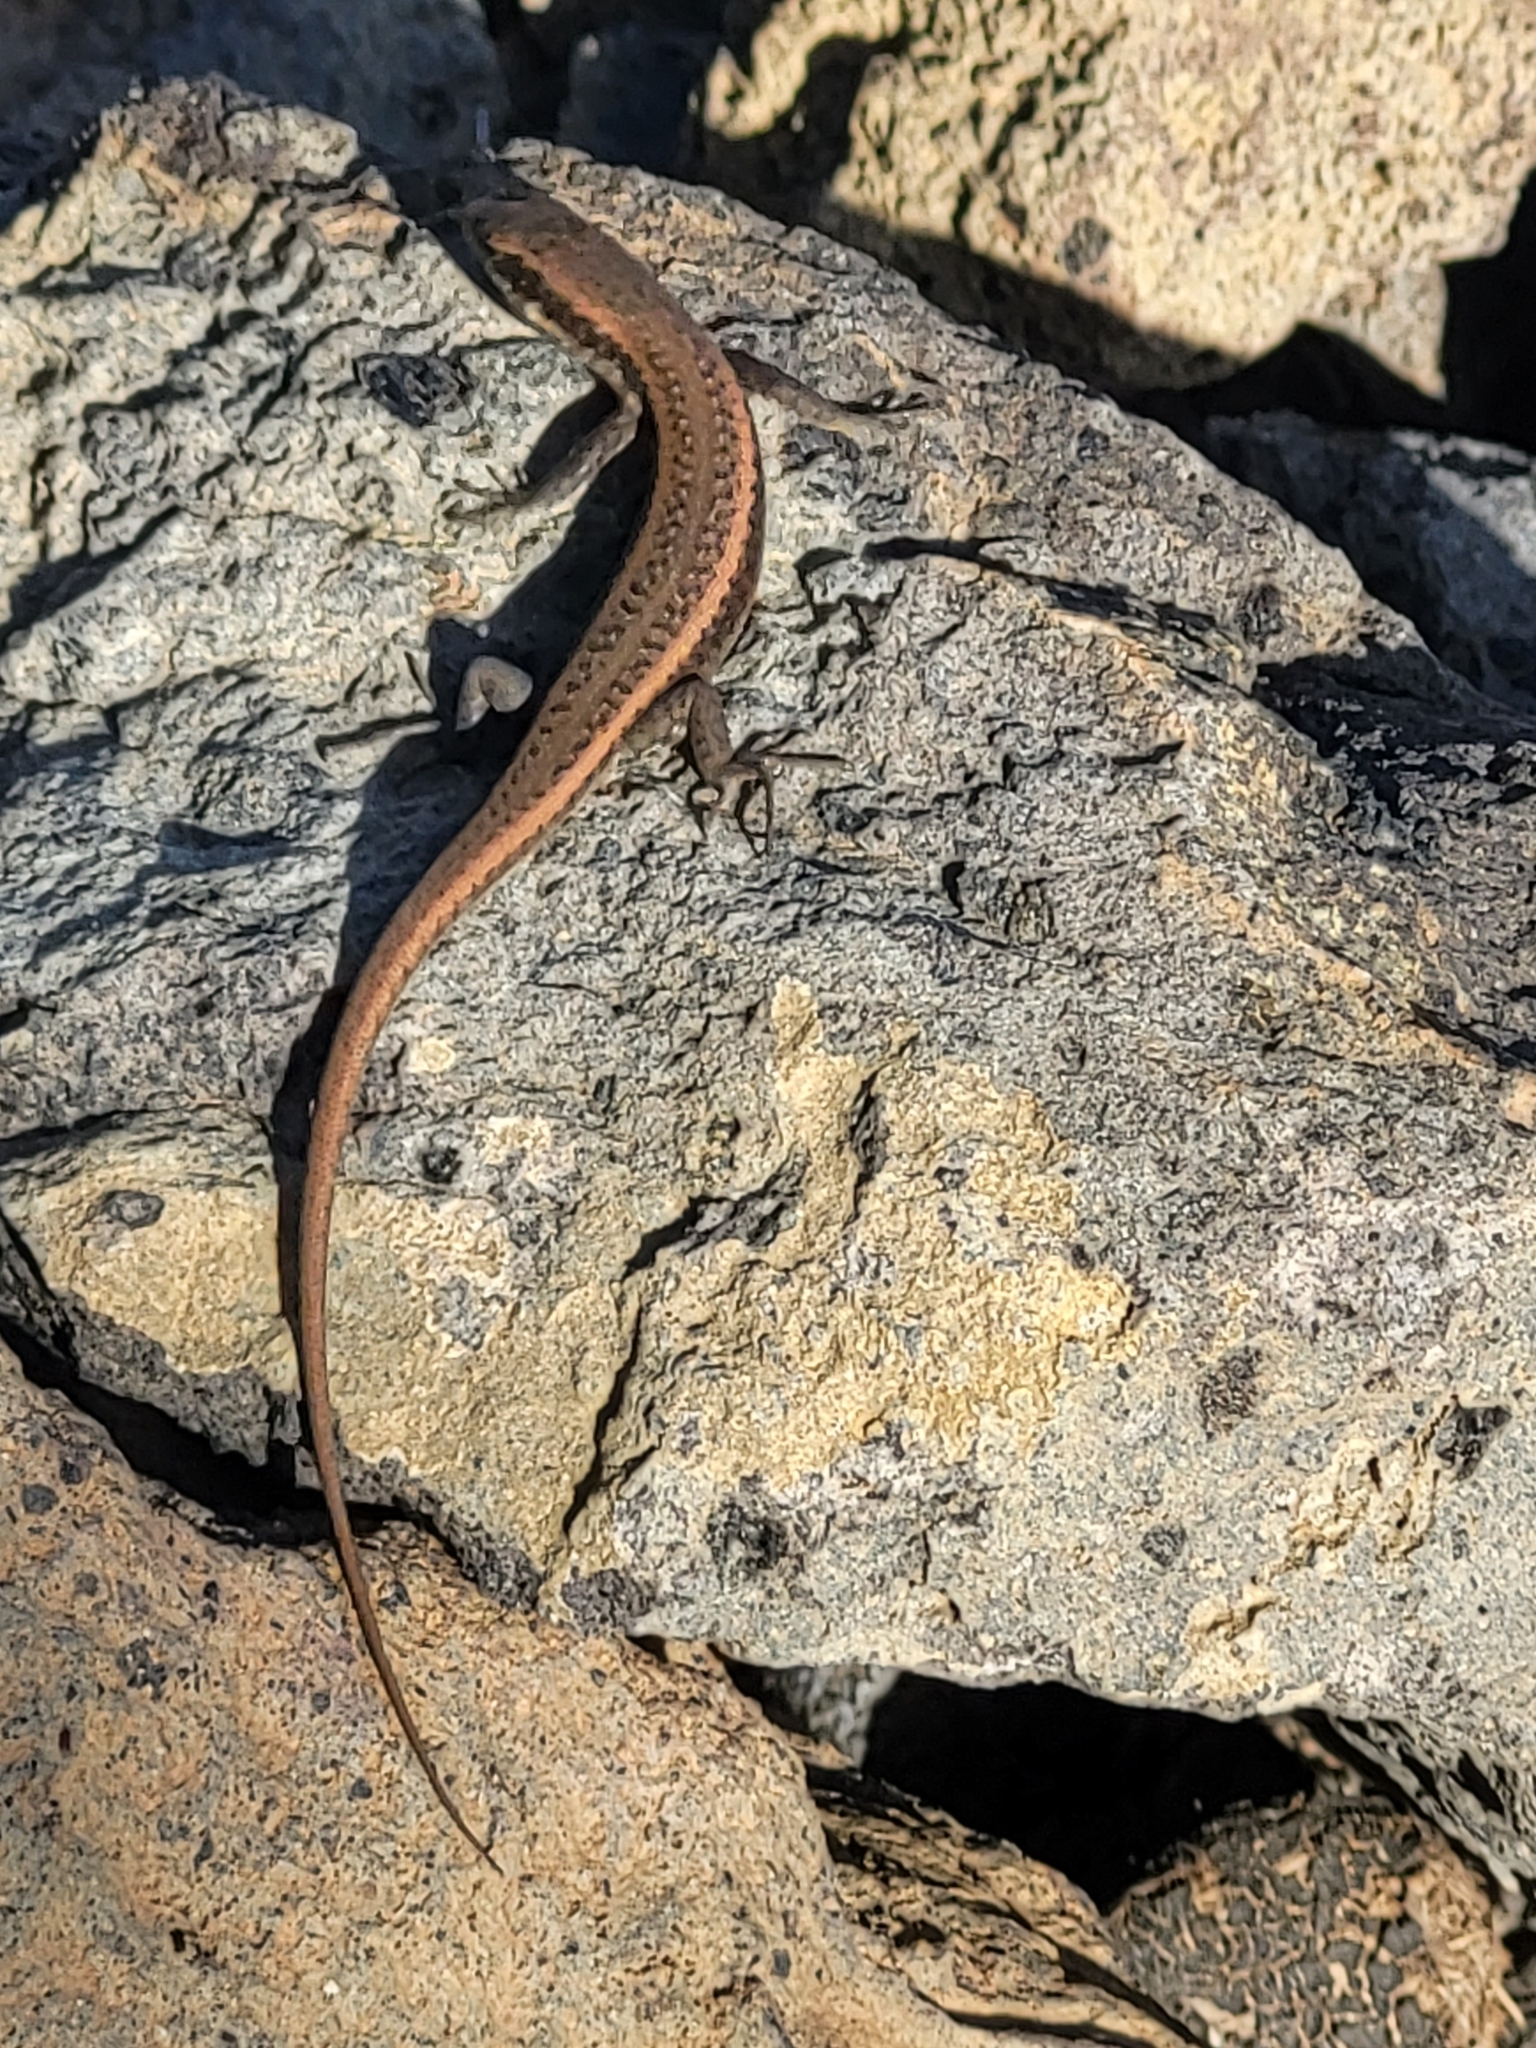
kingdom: Animalia
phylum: Chordata
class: Squamata
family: Scincidae
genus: Chioninia
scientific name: Chioninia fogoensis
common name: Fogo's mabuya
